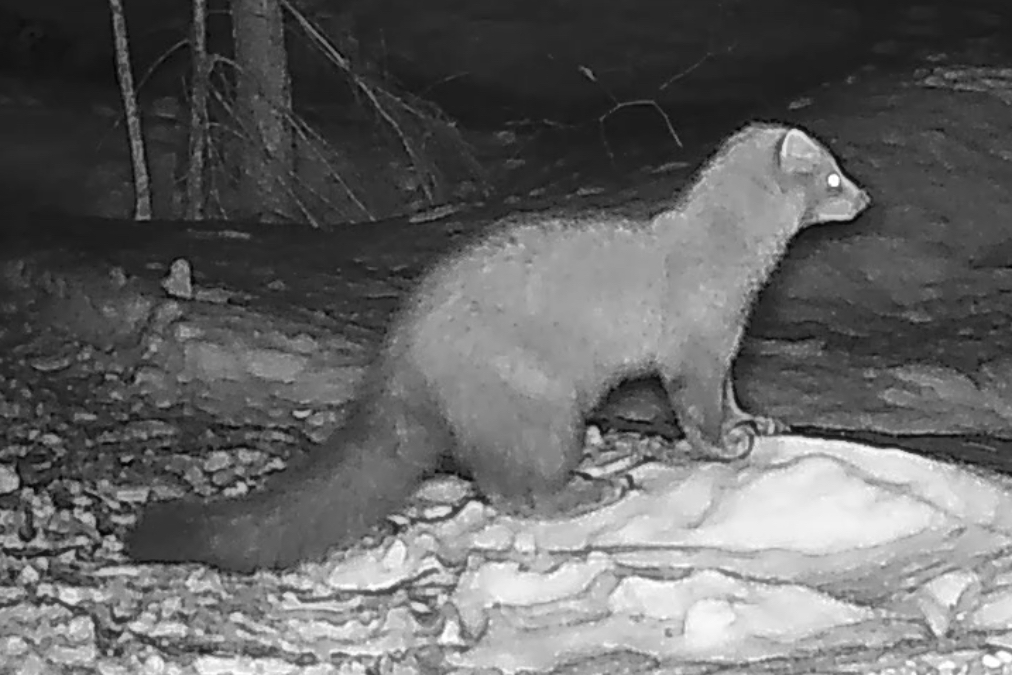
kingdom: Animalia
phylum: Chordata
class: Mammalia
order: Carnivora
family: Mustelidae
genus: Pekania
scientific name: Pekania pennanti
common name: Fisher
